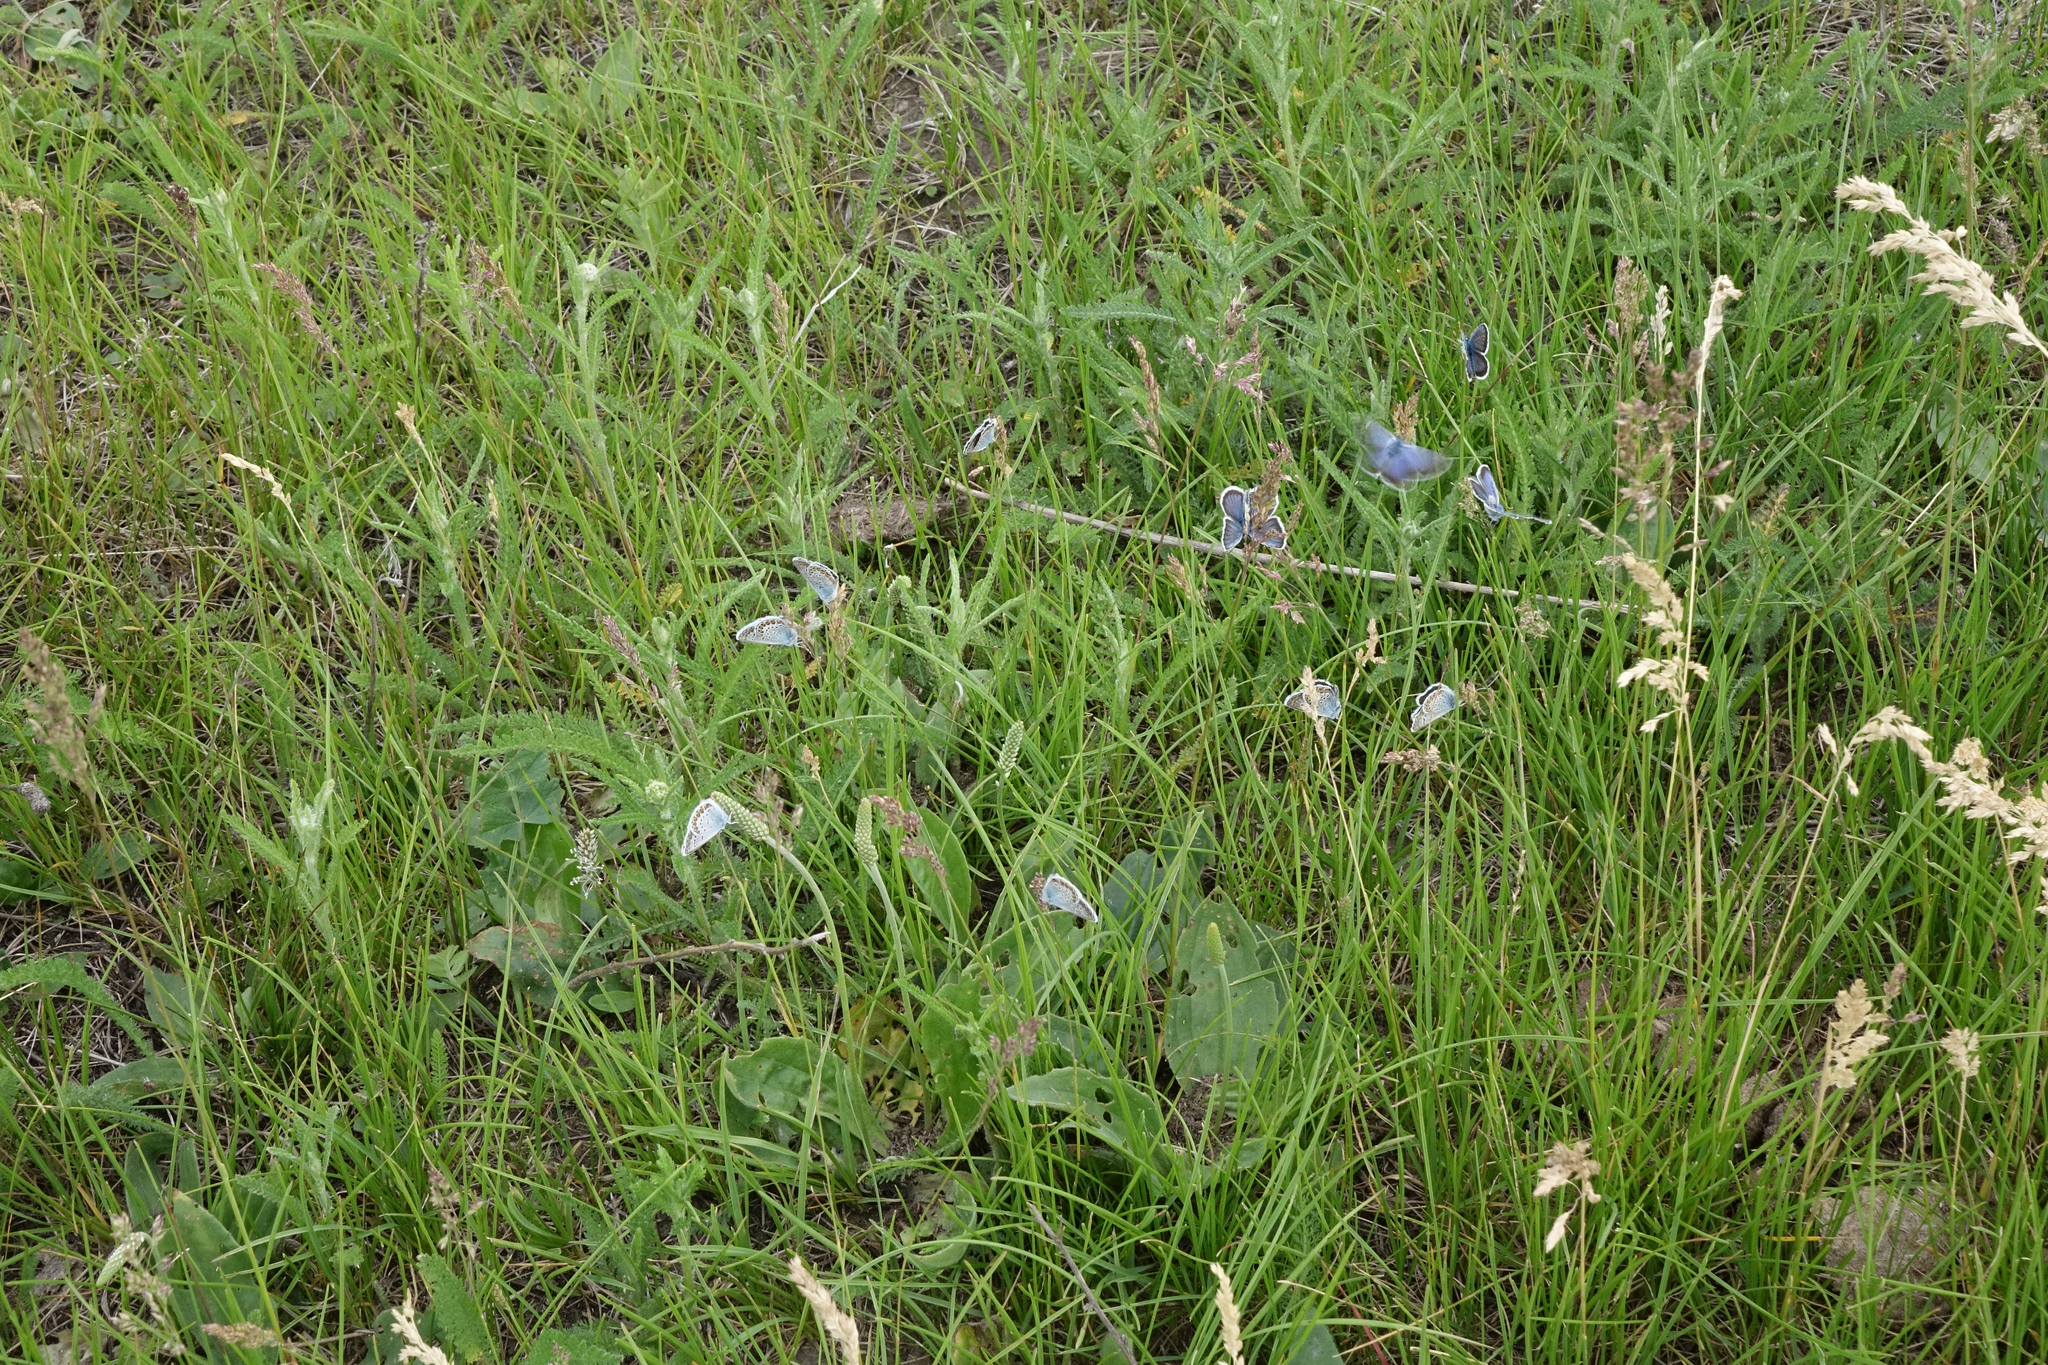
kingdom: Animalia
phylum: Arthropoda
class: Insecta
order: Lepidoptera
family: Lycaenidae
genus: Plebejus
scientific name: Plebejus argus
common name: Silver-studded blue
